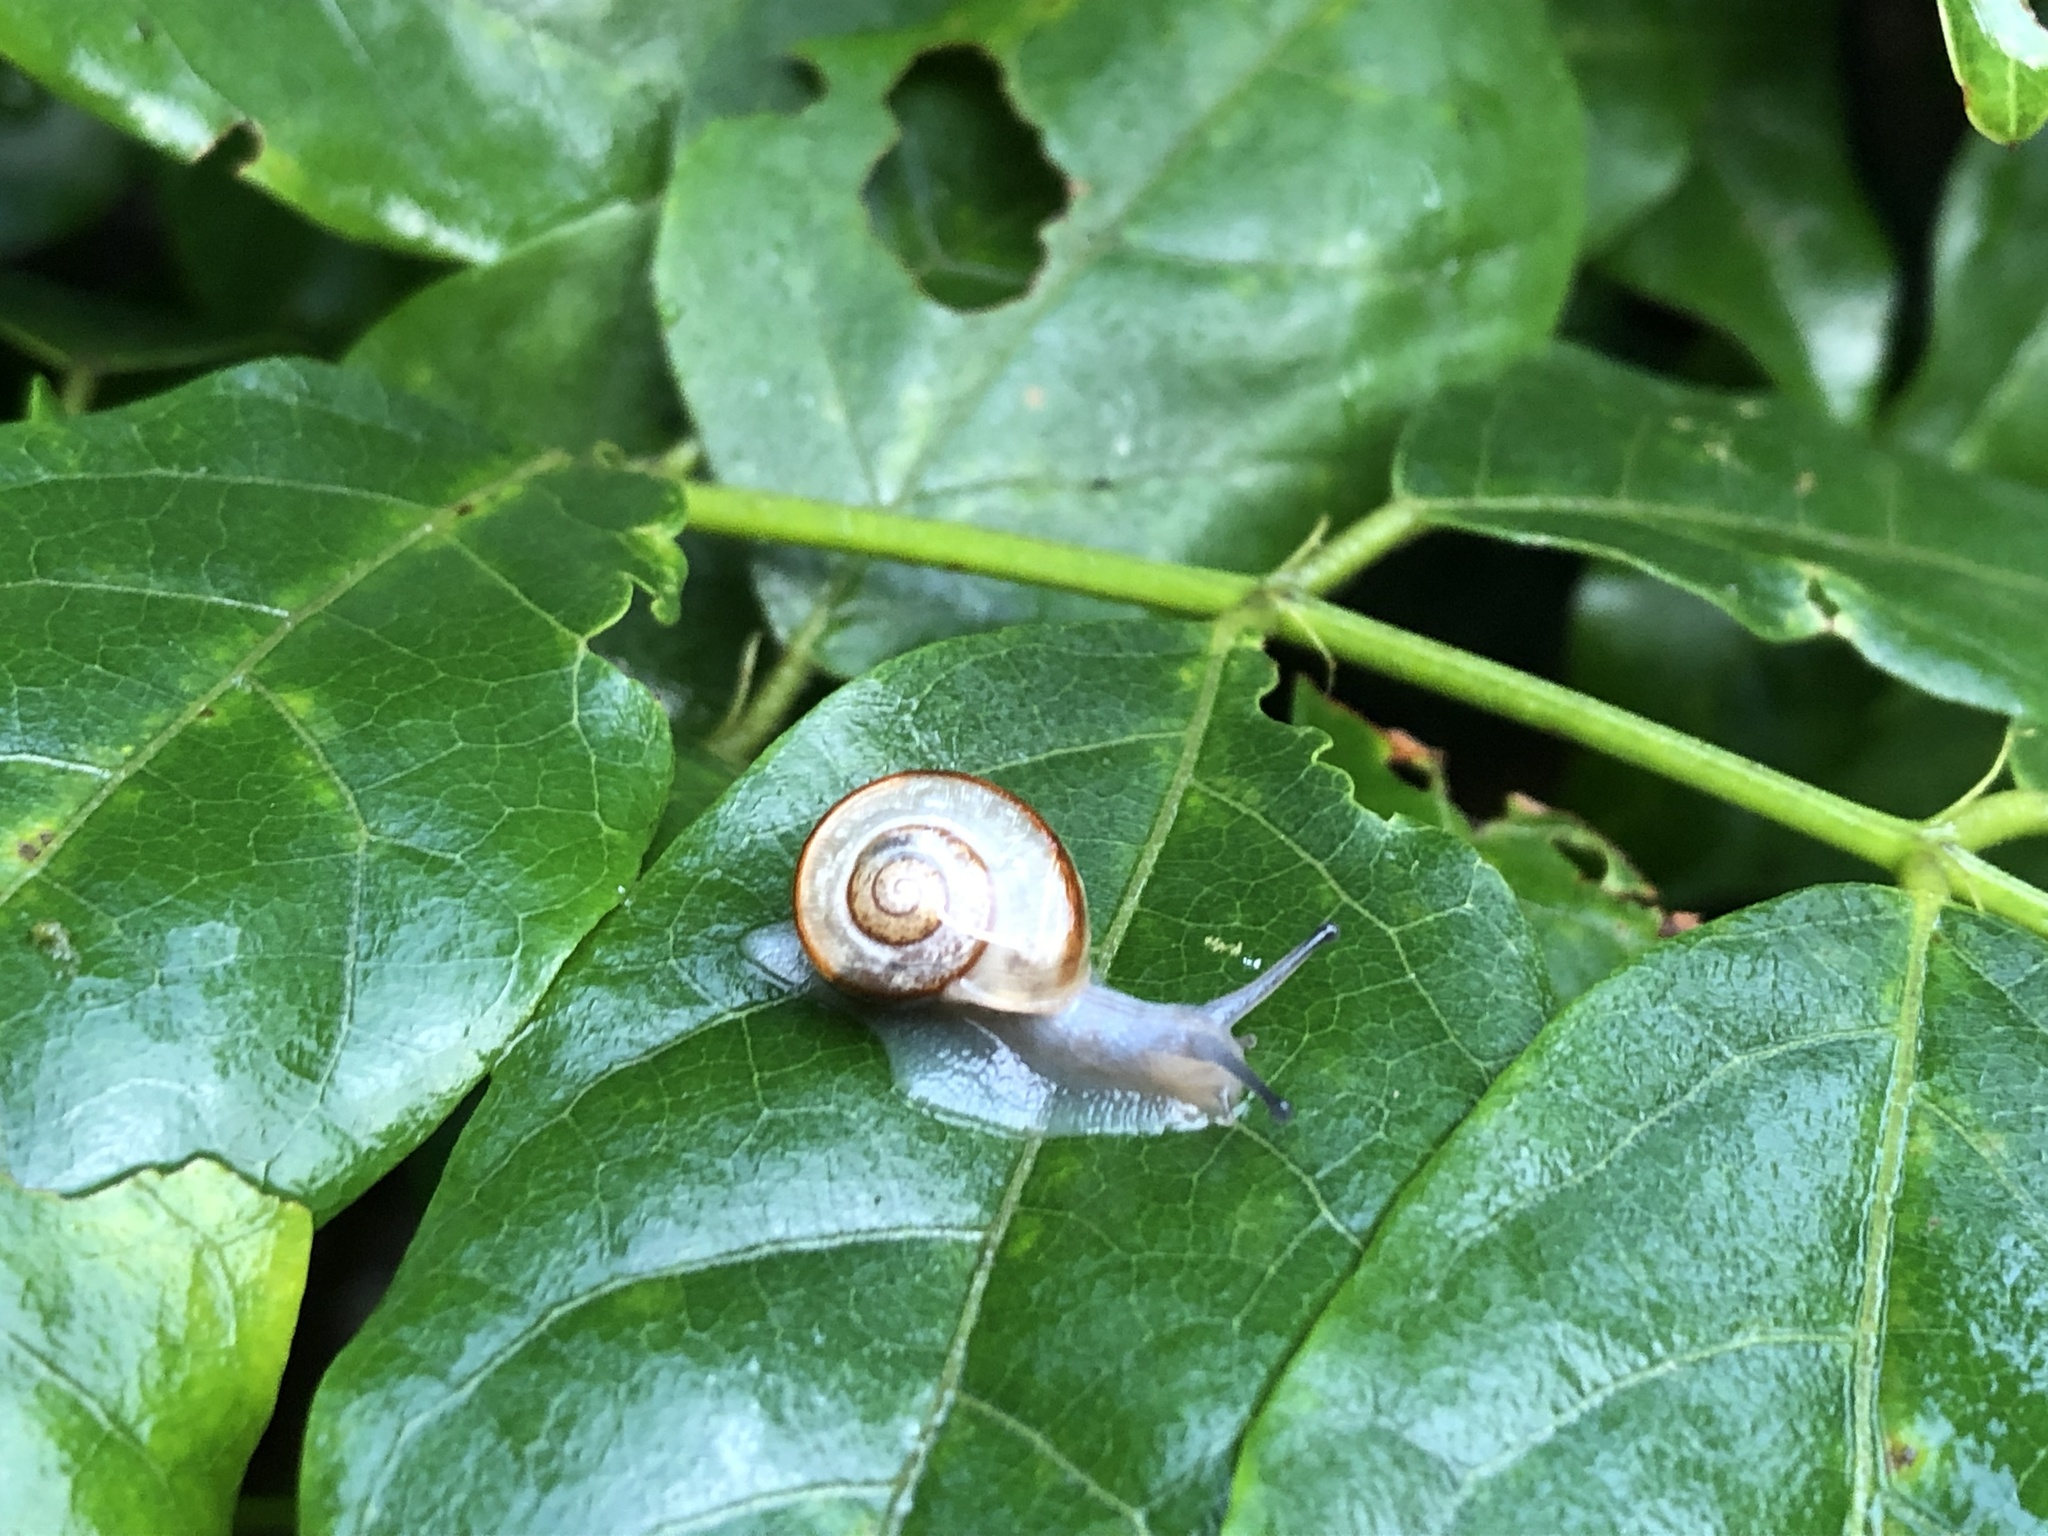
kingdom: Animalia
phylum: Mollusca
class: Gastropoda
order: Stylommatophora
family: Camaenidae
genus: Euhadra
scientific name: Euhadra peliomphala
